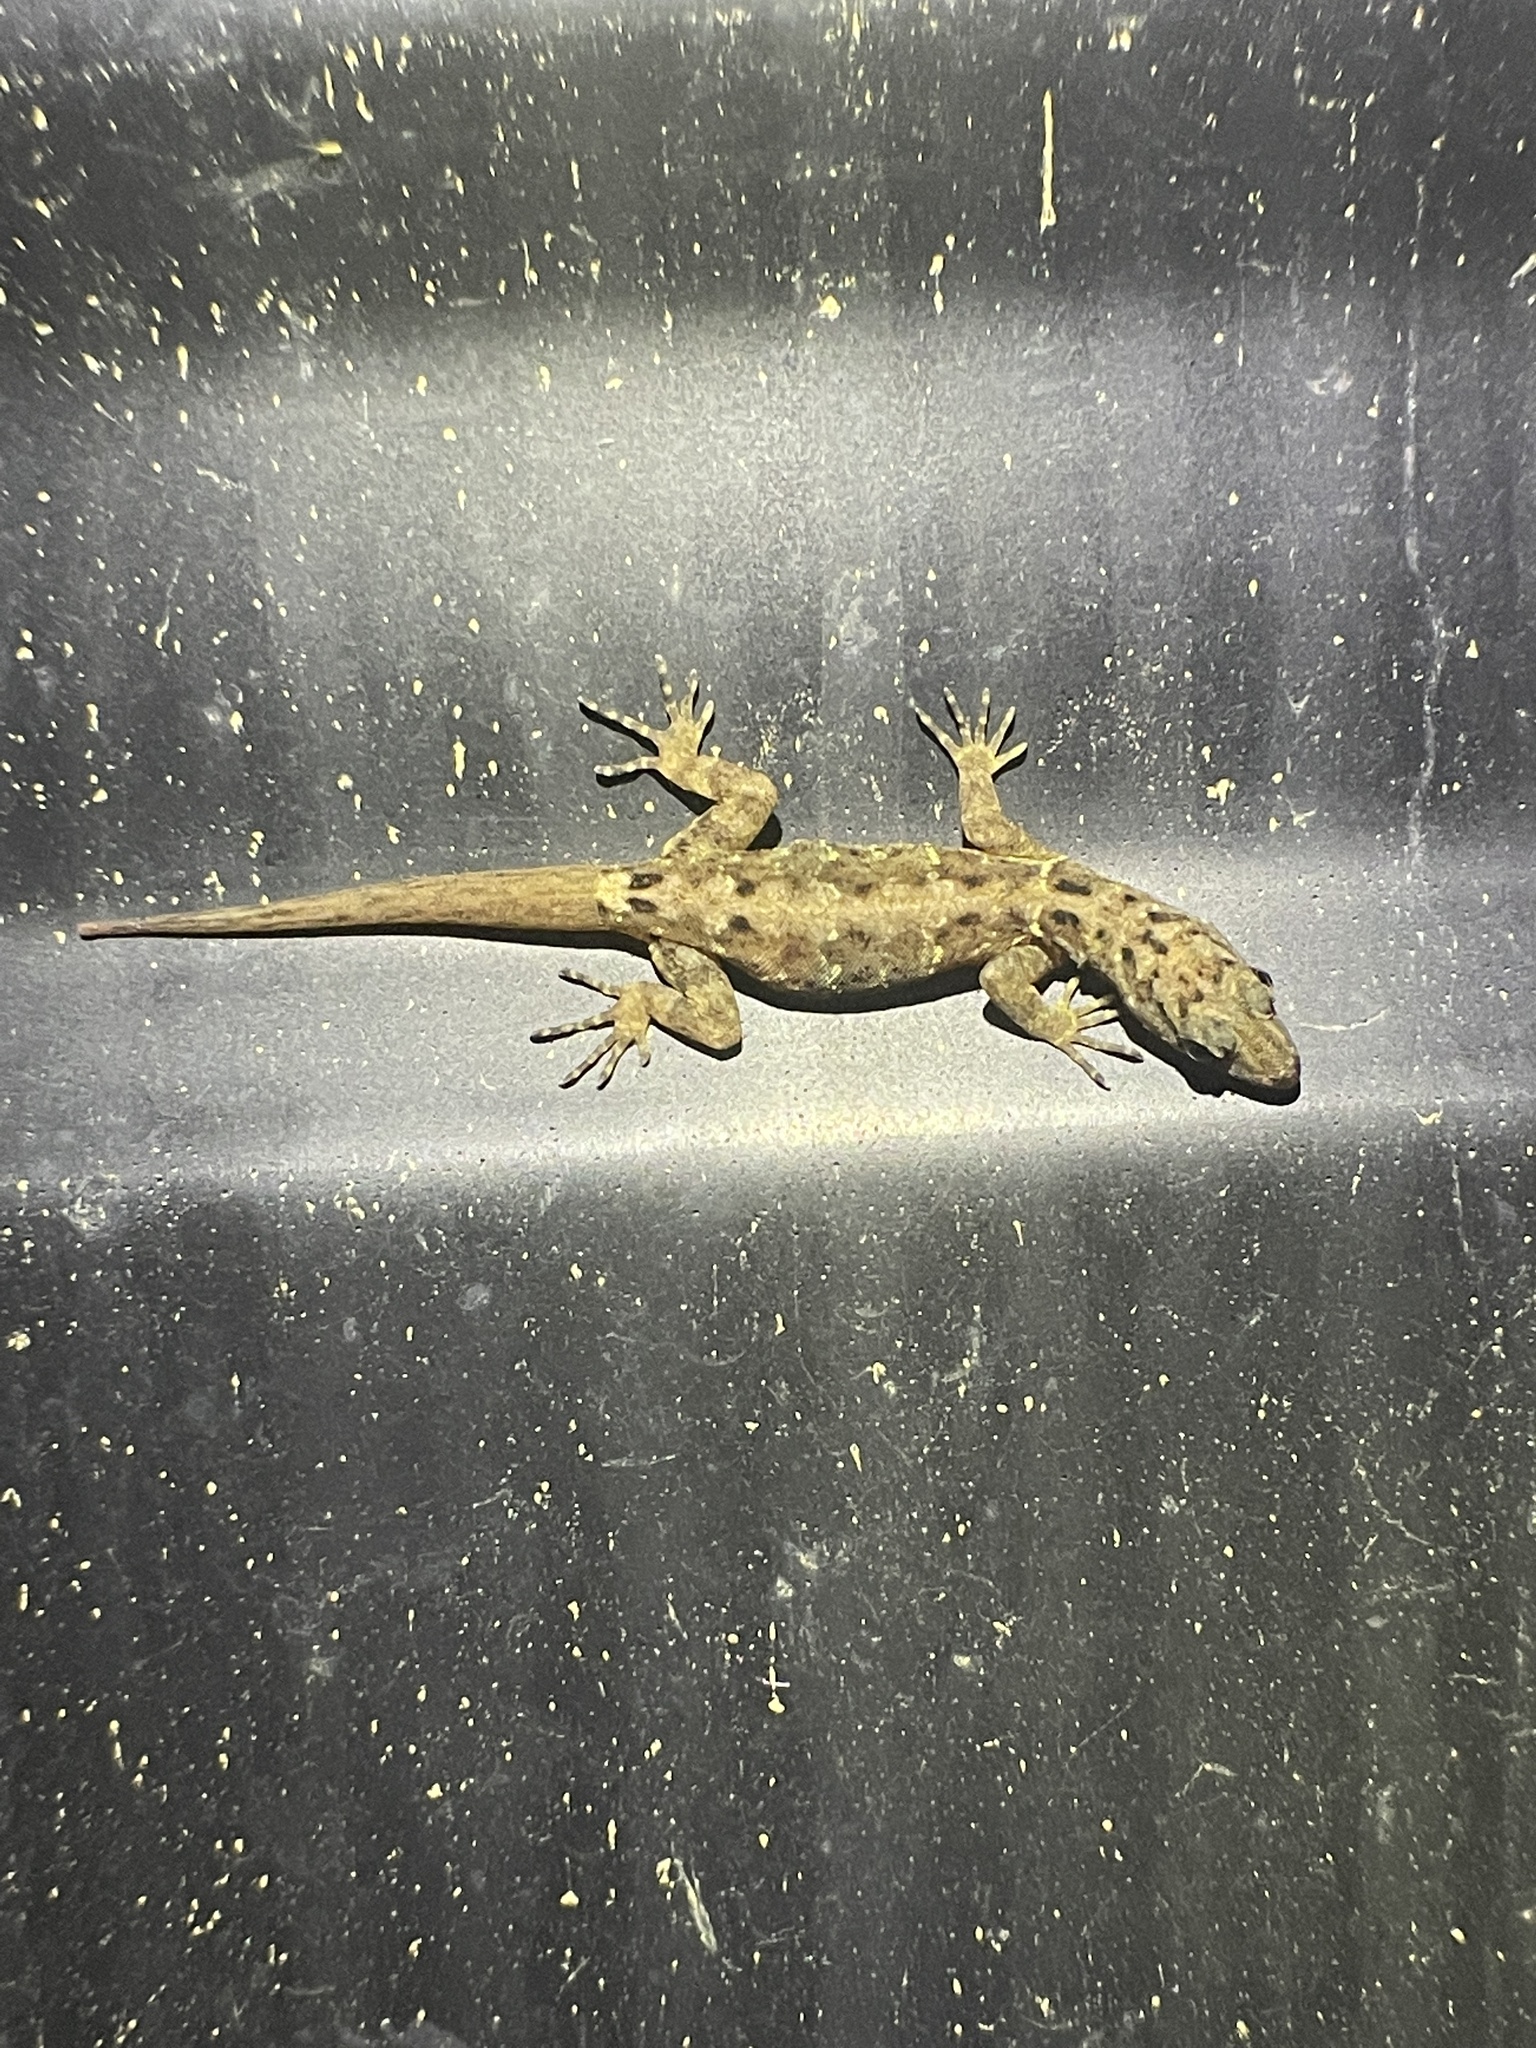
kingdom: Animalia
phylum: Chordata
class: Squamata
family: Sphaerodactylidae
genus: Gonatodes
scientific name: Gonatodes humeralis
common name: South american clawed gecko
